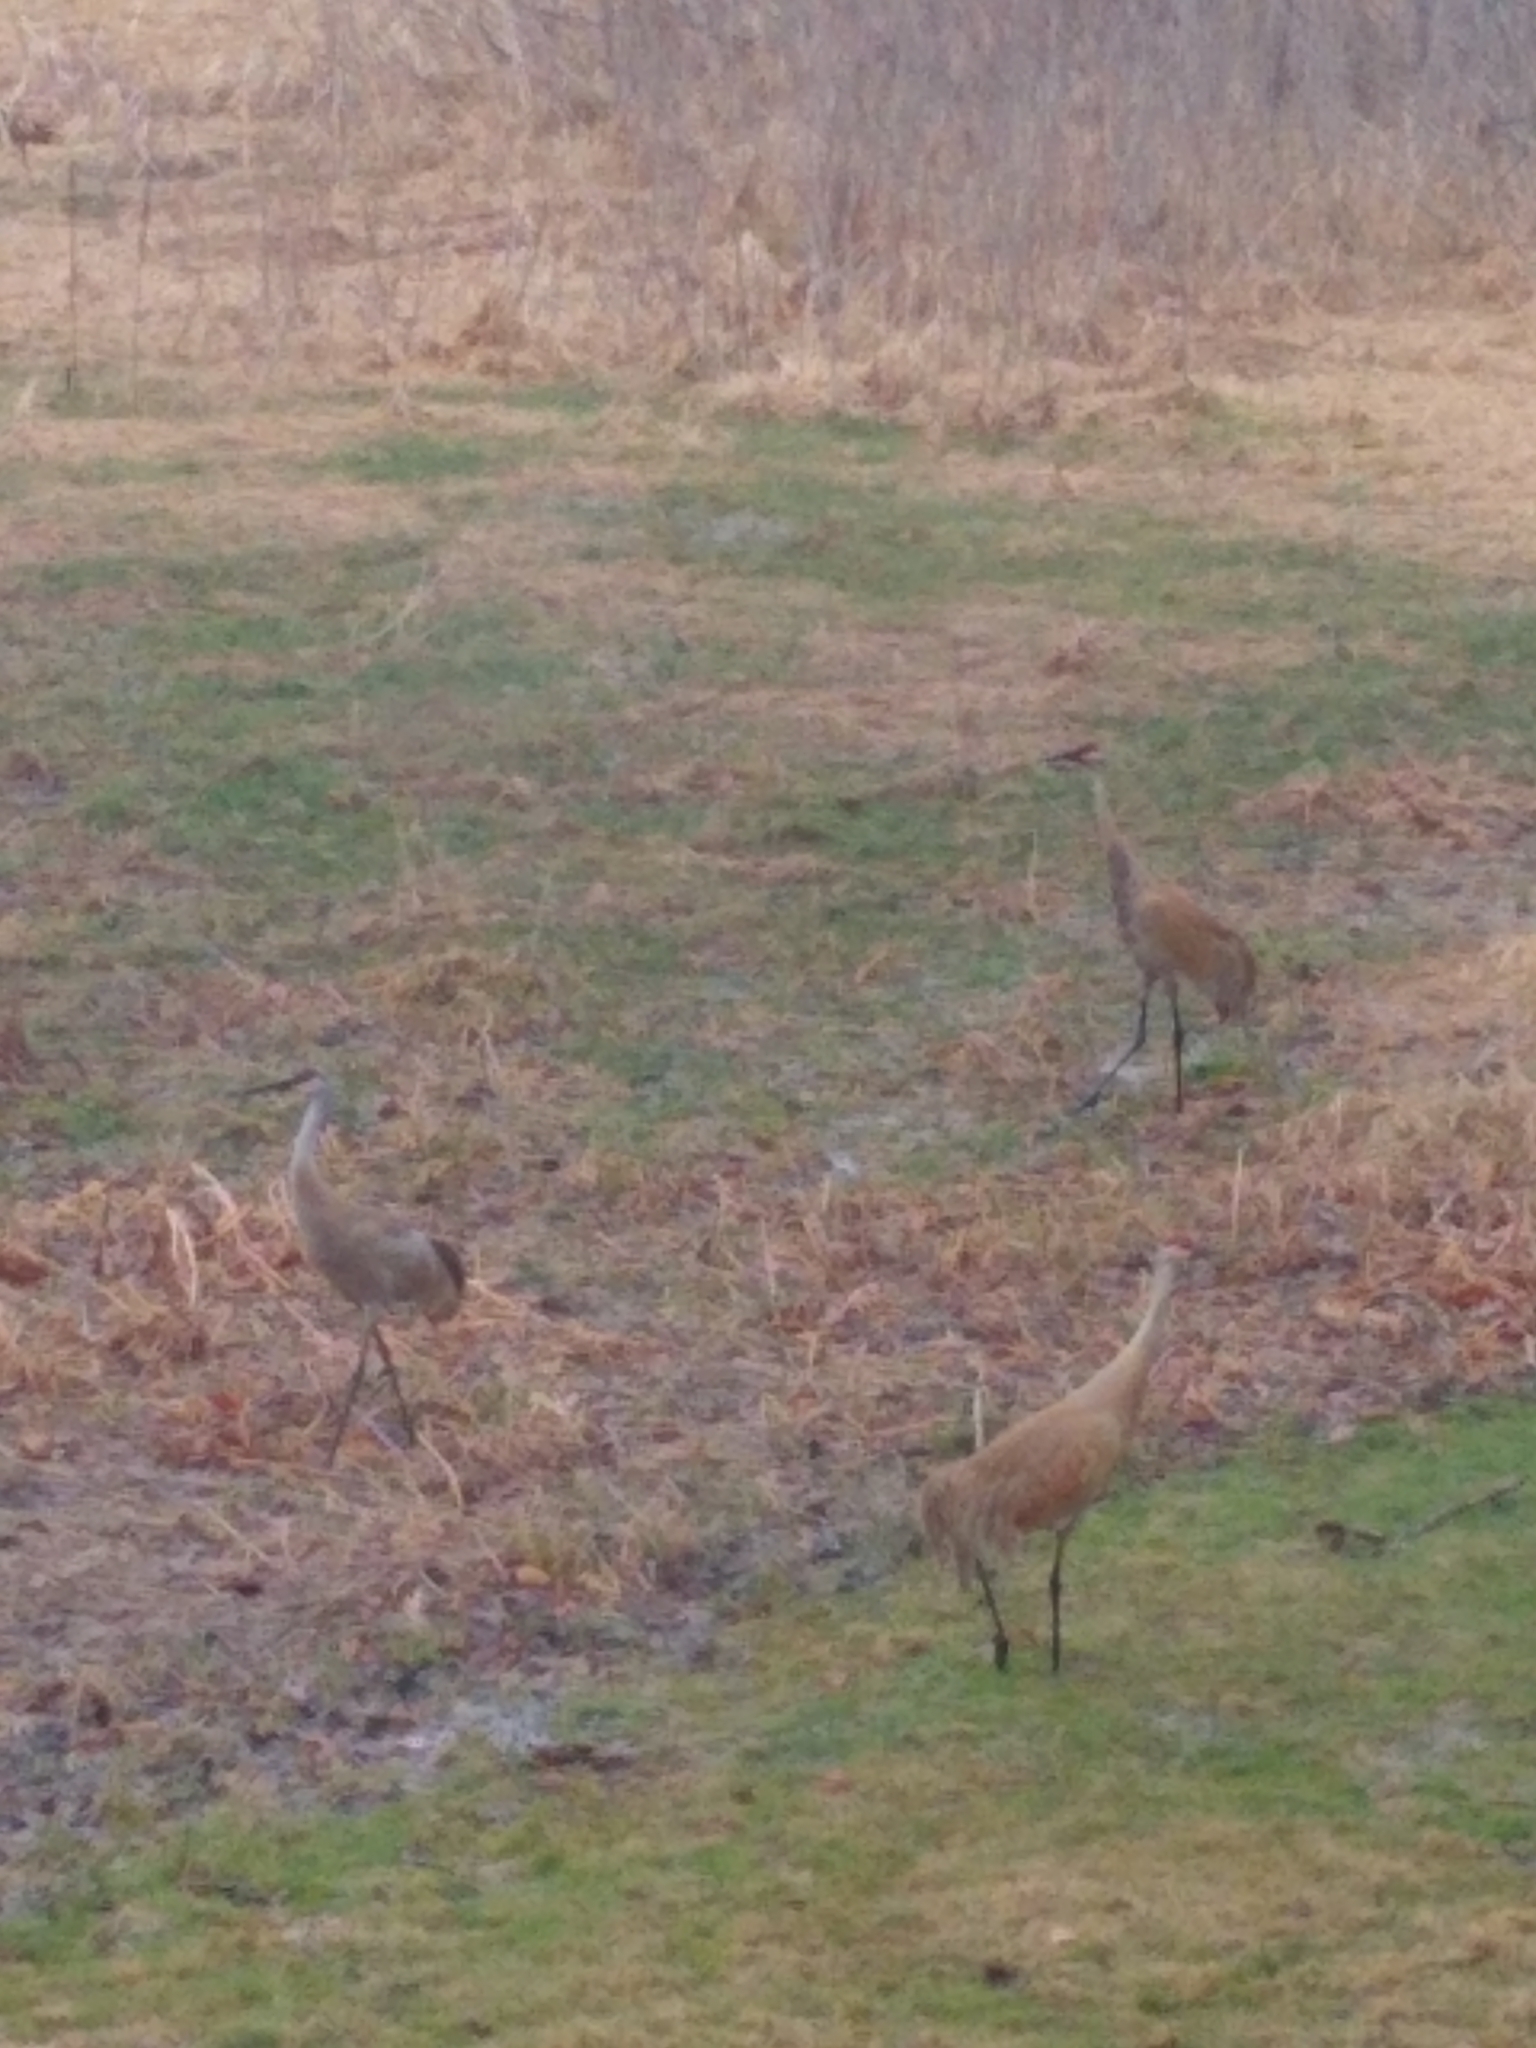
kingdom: Animalia
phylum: Chordata
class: Aves
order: Gruiformes
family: Gruidae
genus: Grus
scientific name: Grus canadensis
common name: Sandhill crane
